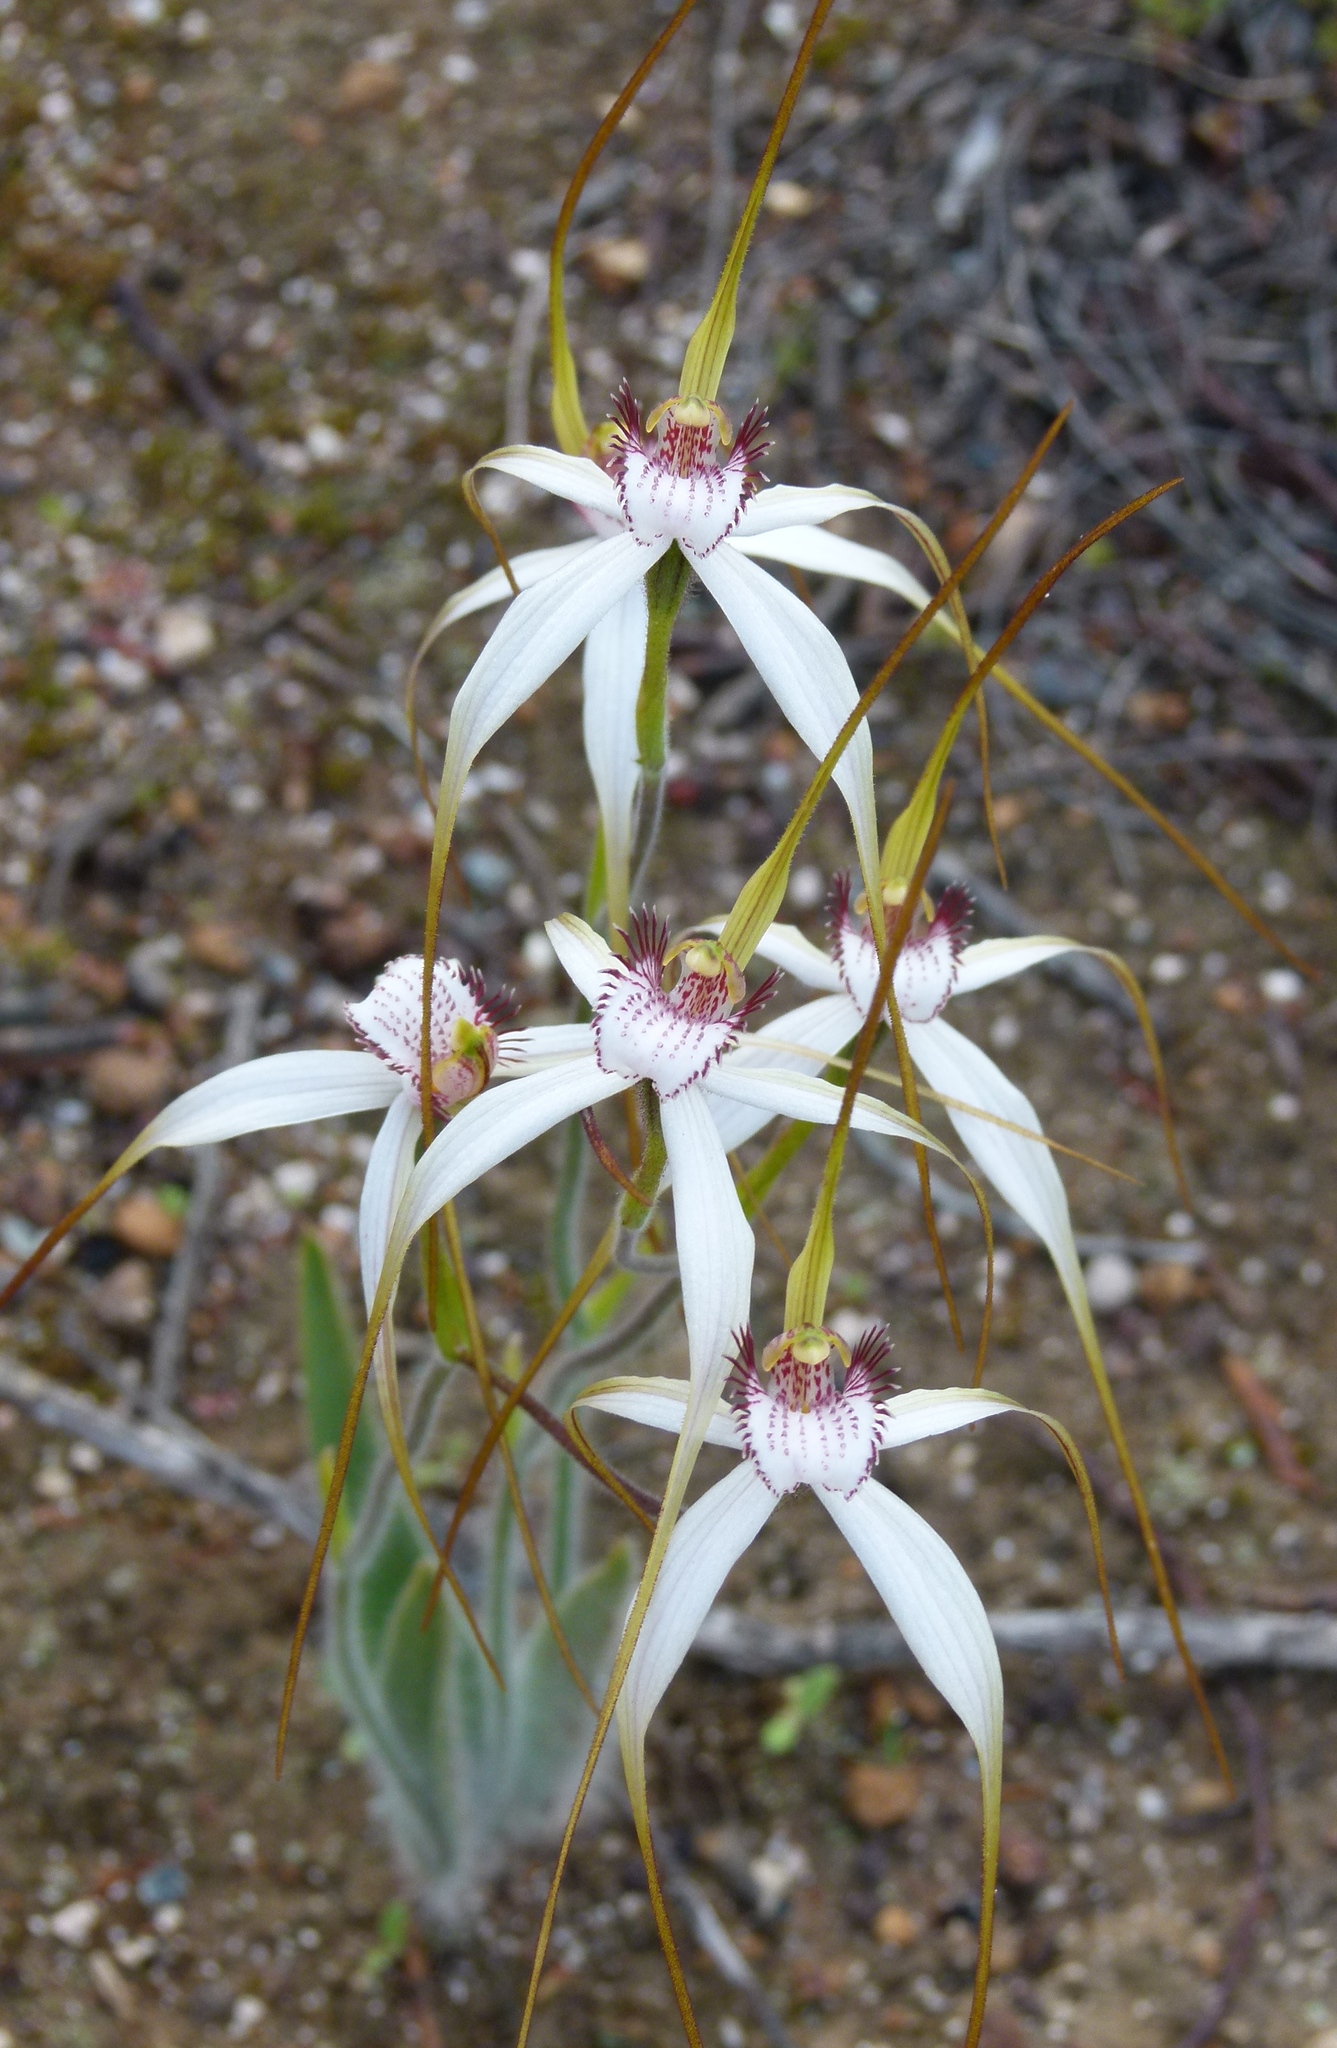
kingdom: Plantae
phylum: Tracheophyta
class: Liliopsida
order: Asparagales
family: Orchidaceae
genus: Caladenia
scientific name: Caladenia longicauda
